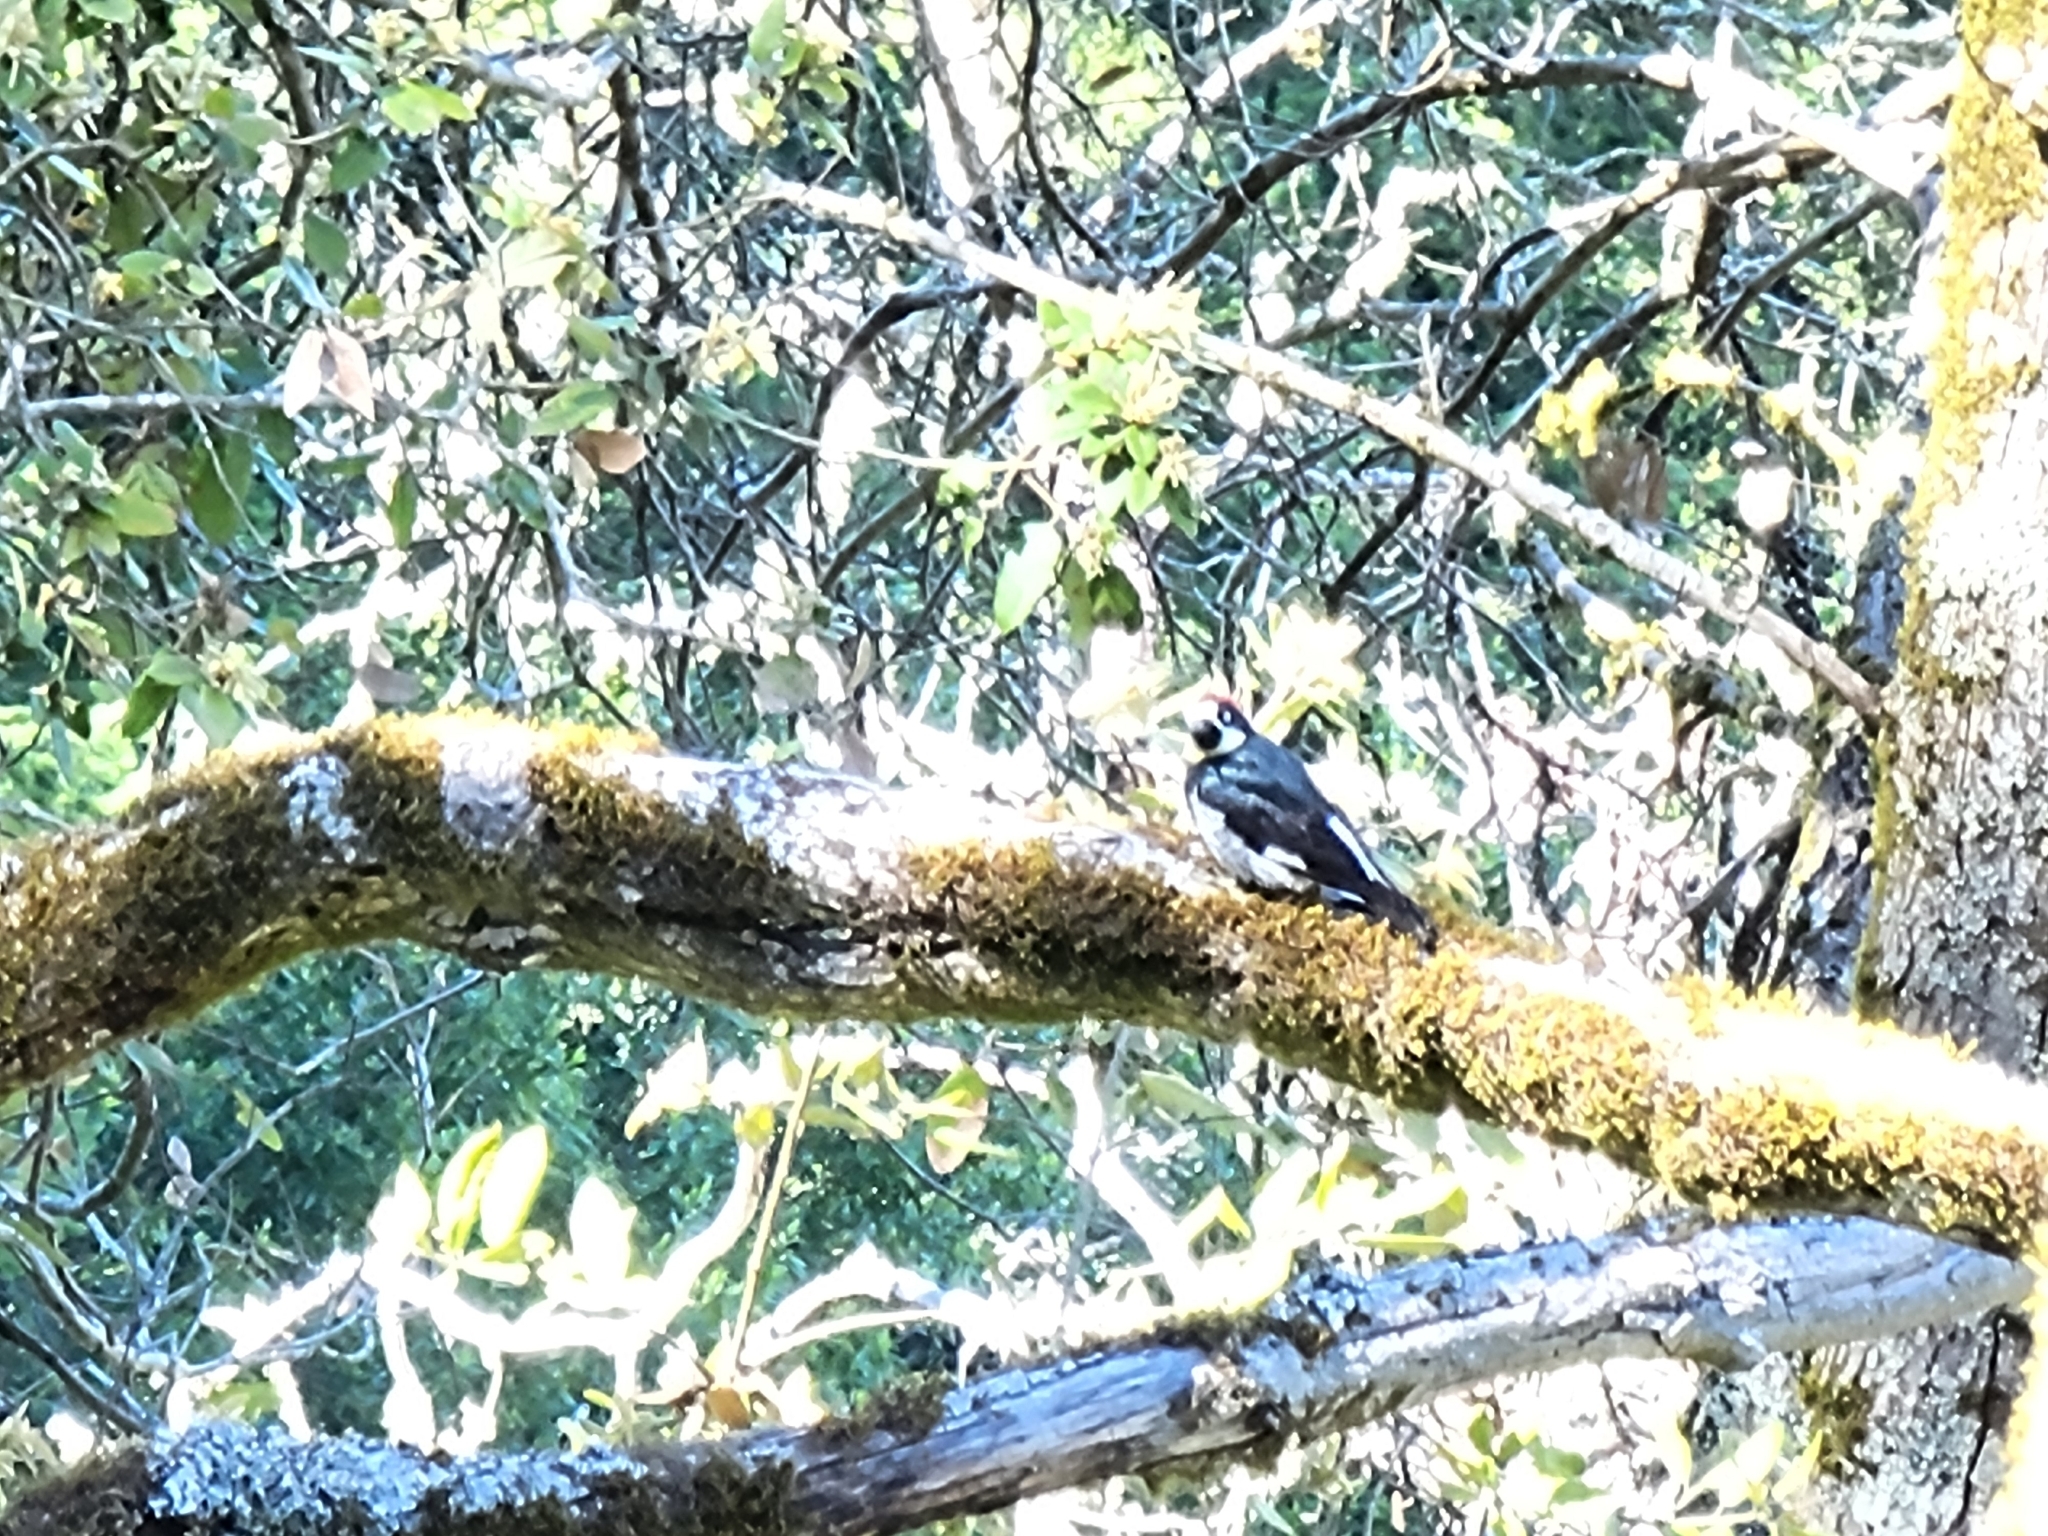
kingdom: Animalia
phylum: Chordata
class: Aves
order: Piciformes
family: Picidae
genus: Melanerpes
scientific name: Melanerpes formicivorus
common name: Acorn woodpecker
